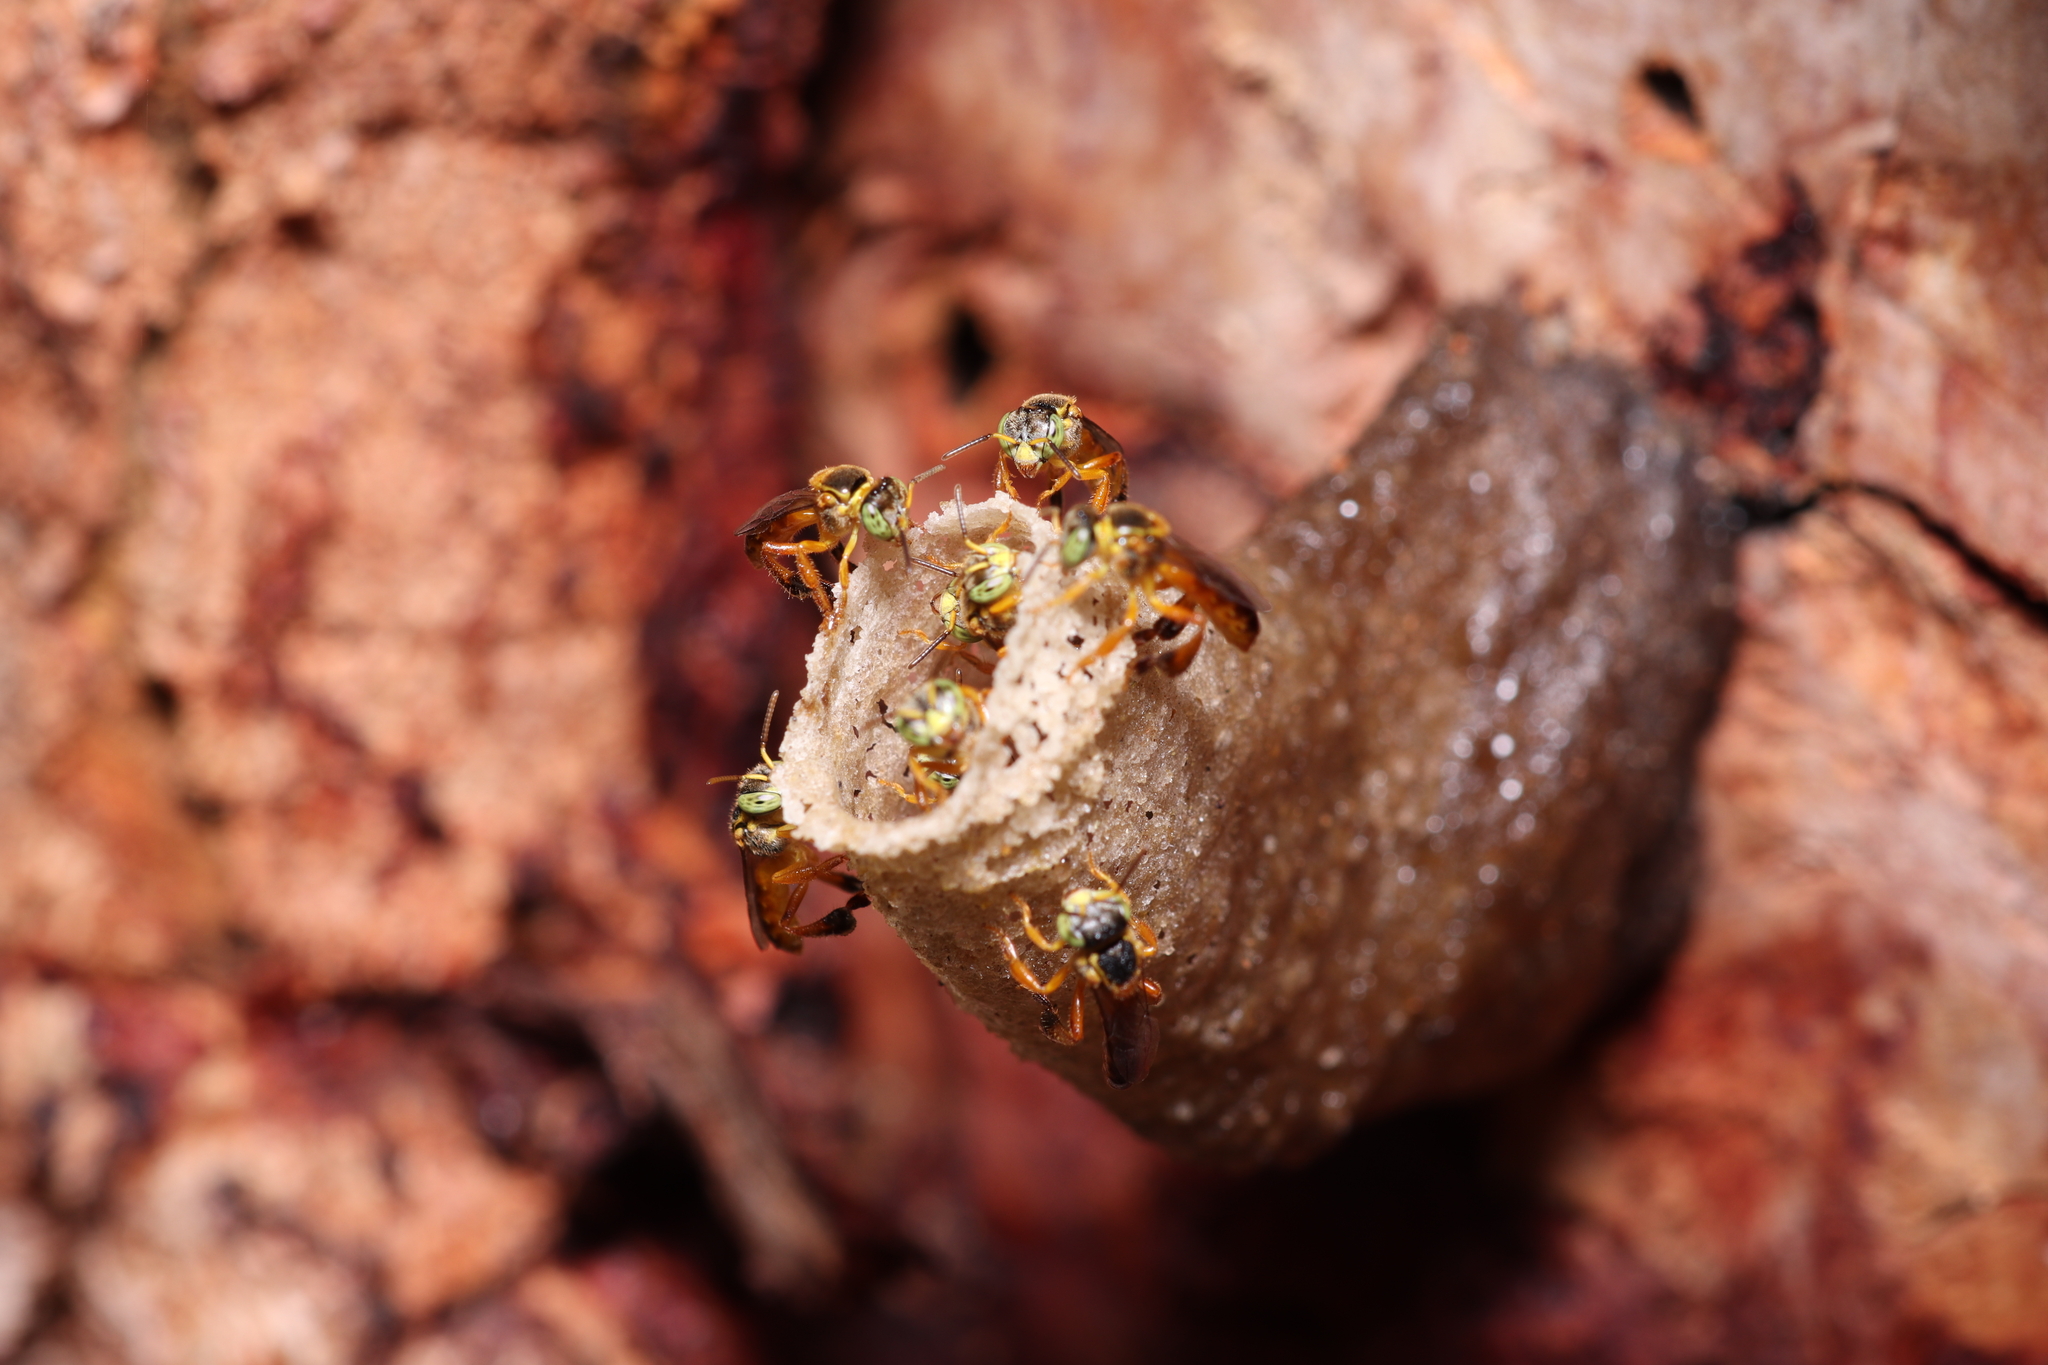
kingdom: Animalia
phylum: Arthropoda
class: Insecta
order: Hymenoptera
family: Apidae
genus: Tetragonisca
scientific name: Tetragonisca angustula
